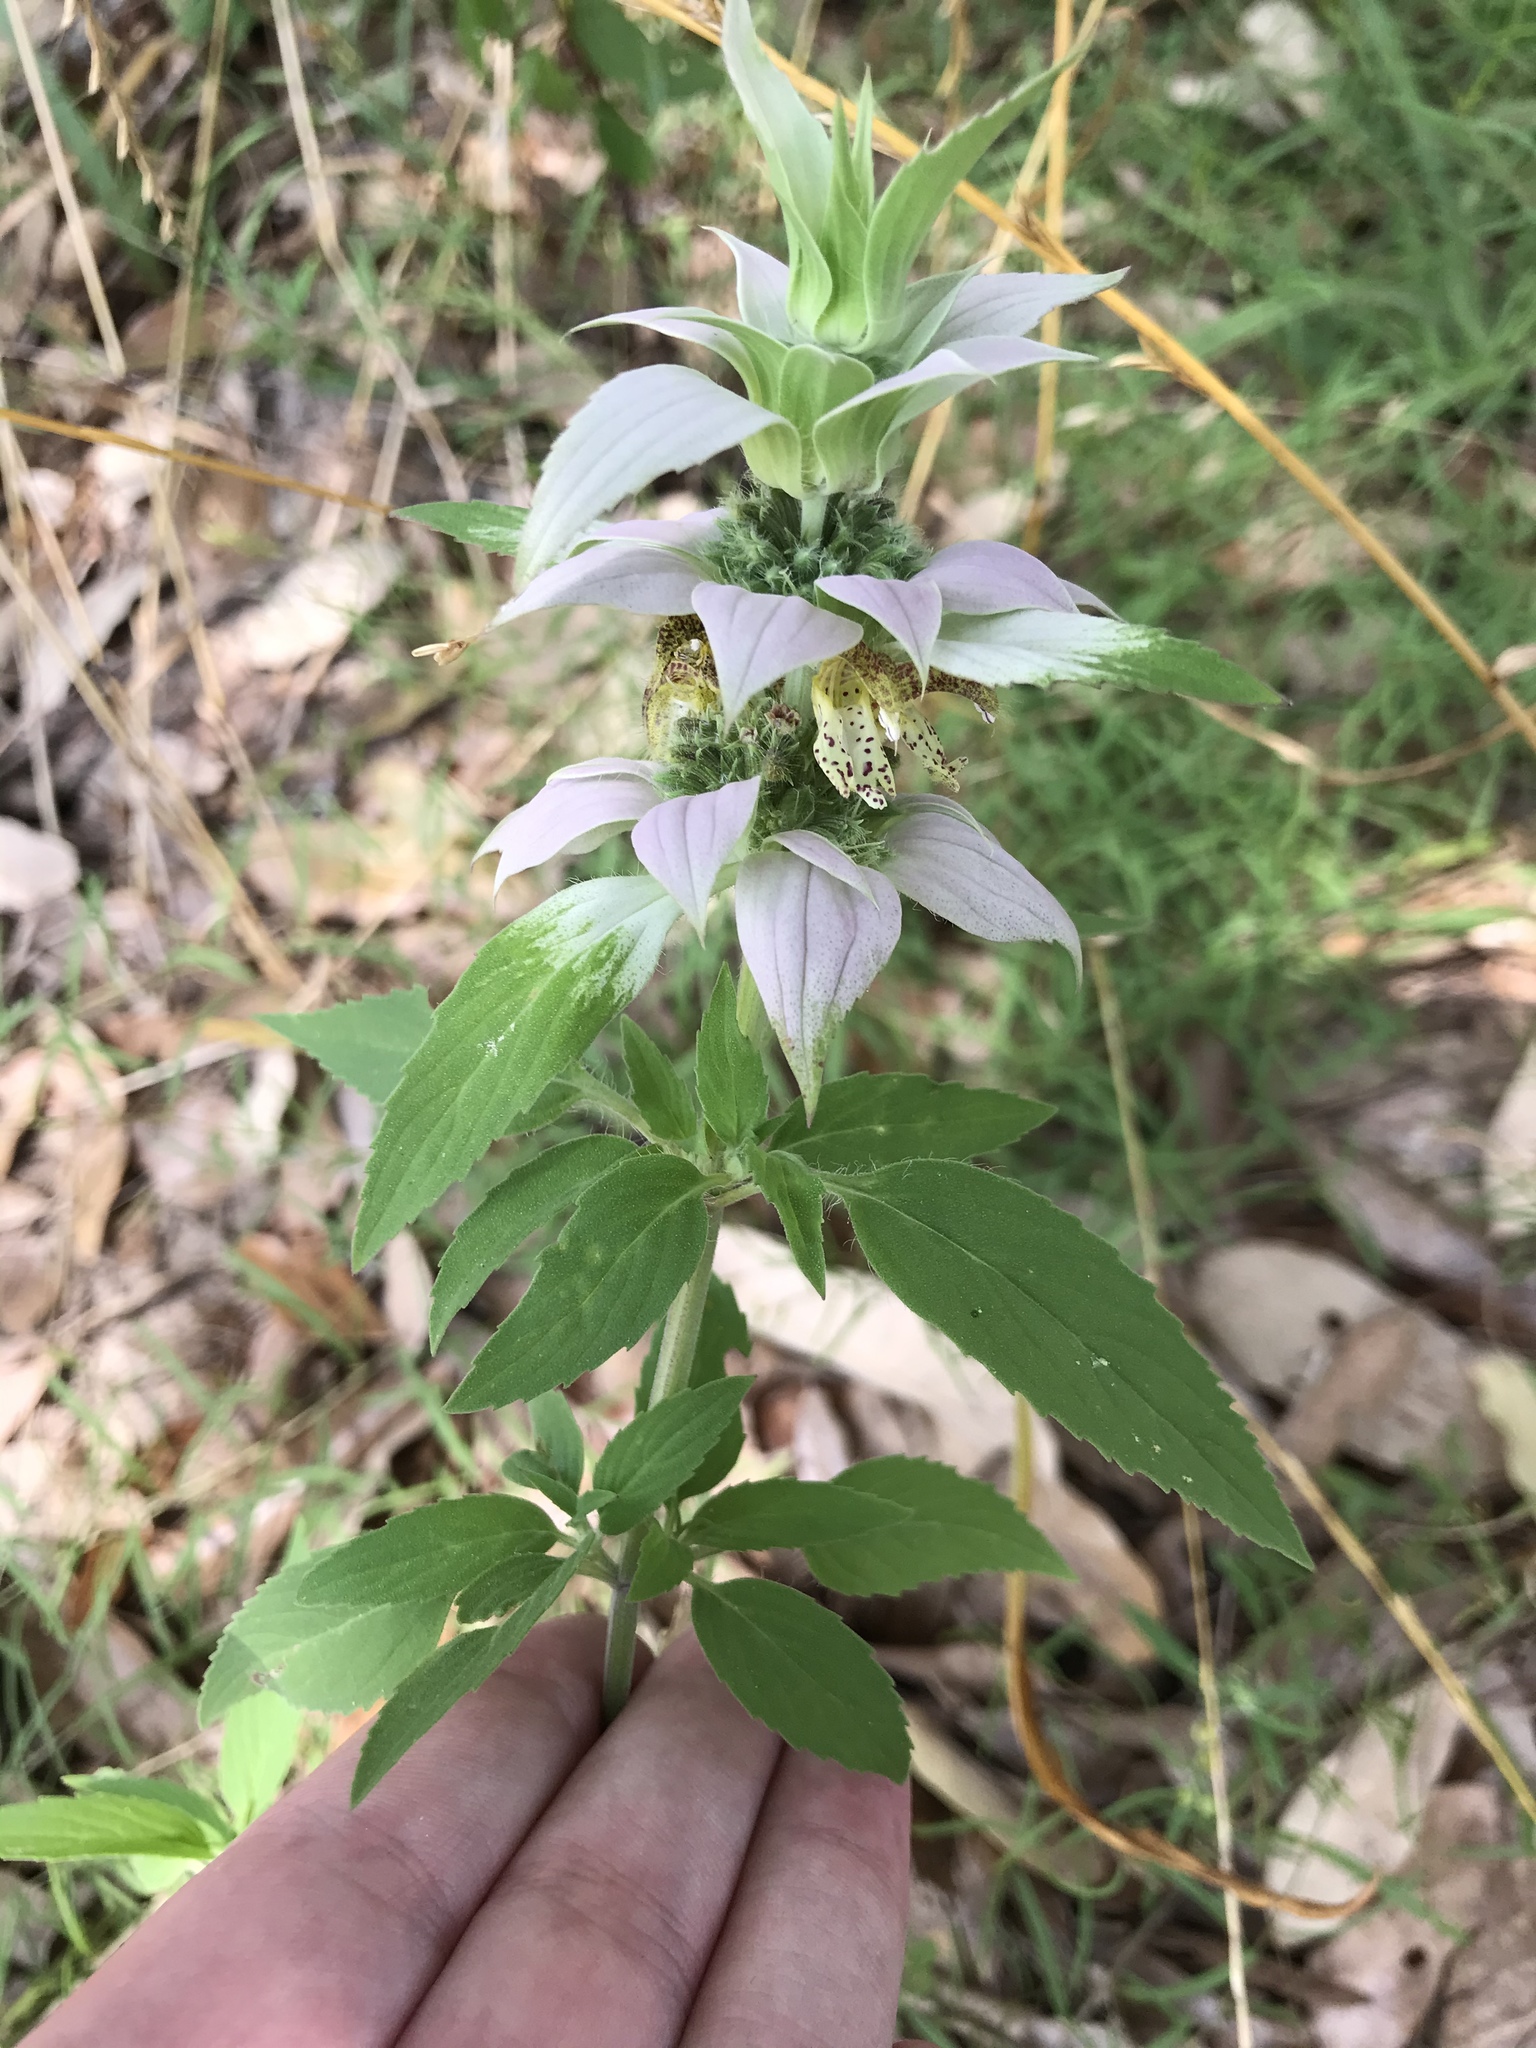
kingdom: Plantae
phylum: Tracheophyta
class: Magnoliopsida
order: Lamiales
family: Lamiaceae
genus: Monarda
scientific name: Monarda punctata
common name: Dotted monarda
